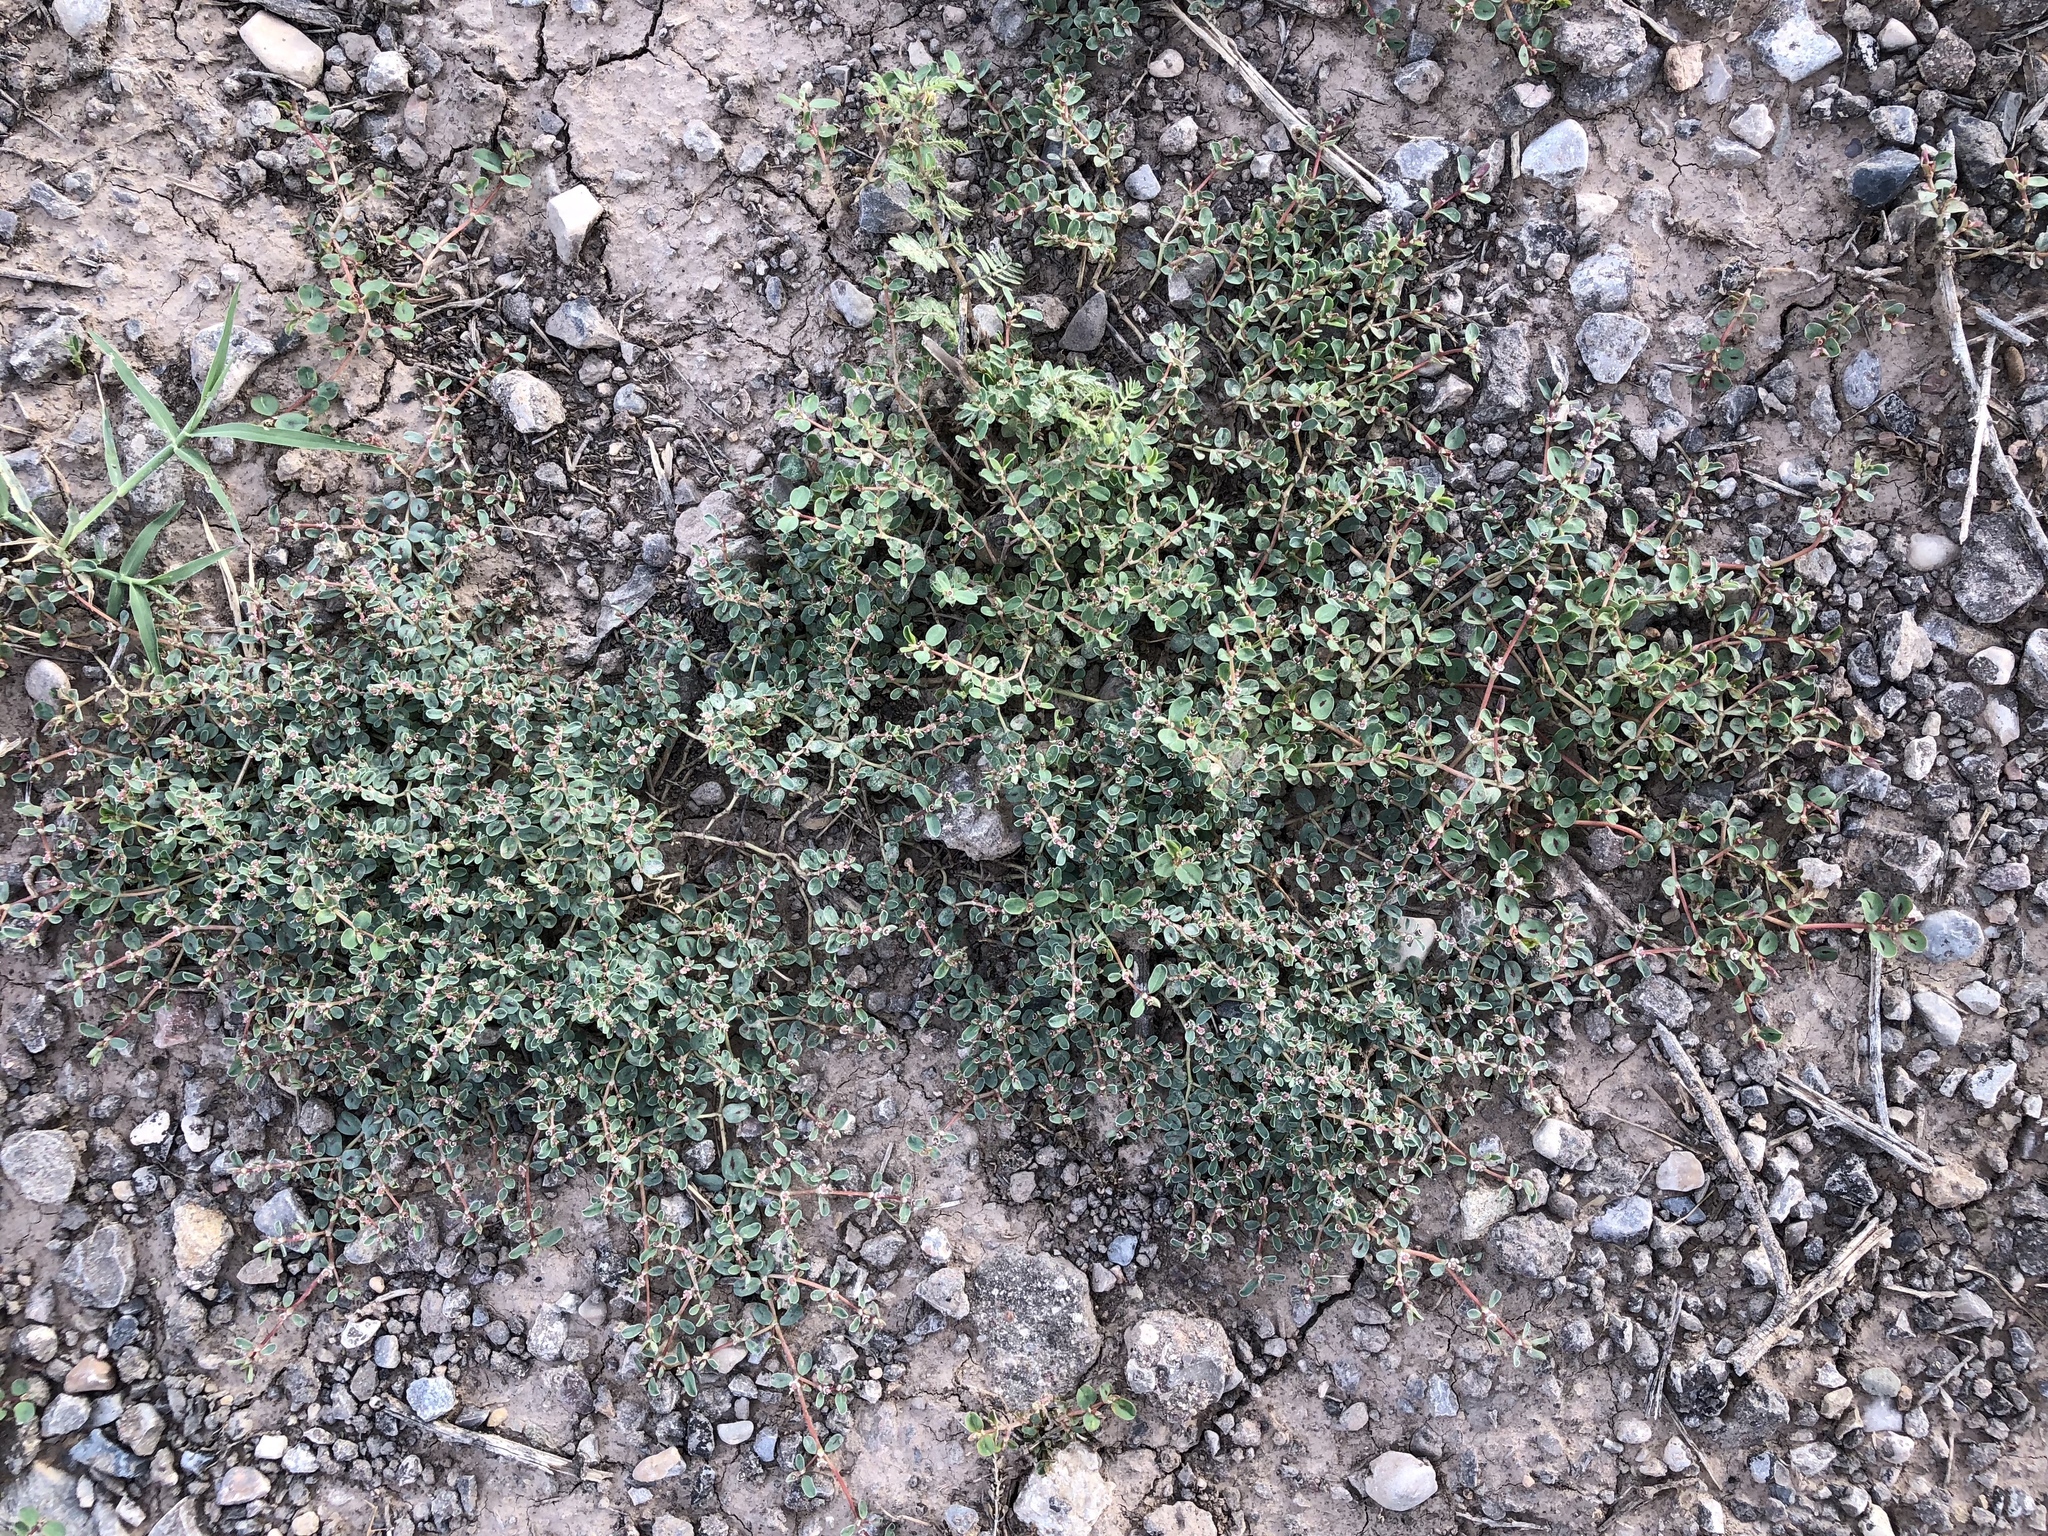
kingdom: Plantae
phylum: Tracheophyta
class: Magnoliopsida
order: Malpighiales
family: Euphorbiaceae
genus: Euphorbia
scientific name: Euphorbia albomarginata
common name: Whitemargin sandmat
